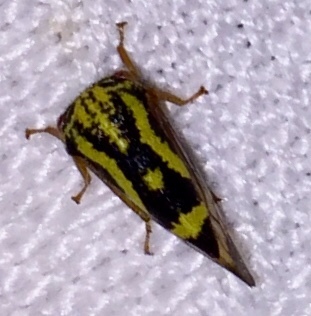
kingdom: Animalia
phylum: Arthropoda
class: Insecta
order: Hemiptera
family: Membracidae
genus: Ophiderma
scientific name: Ophiderma flava
